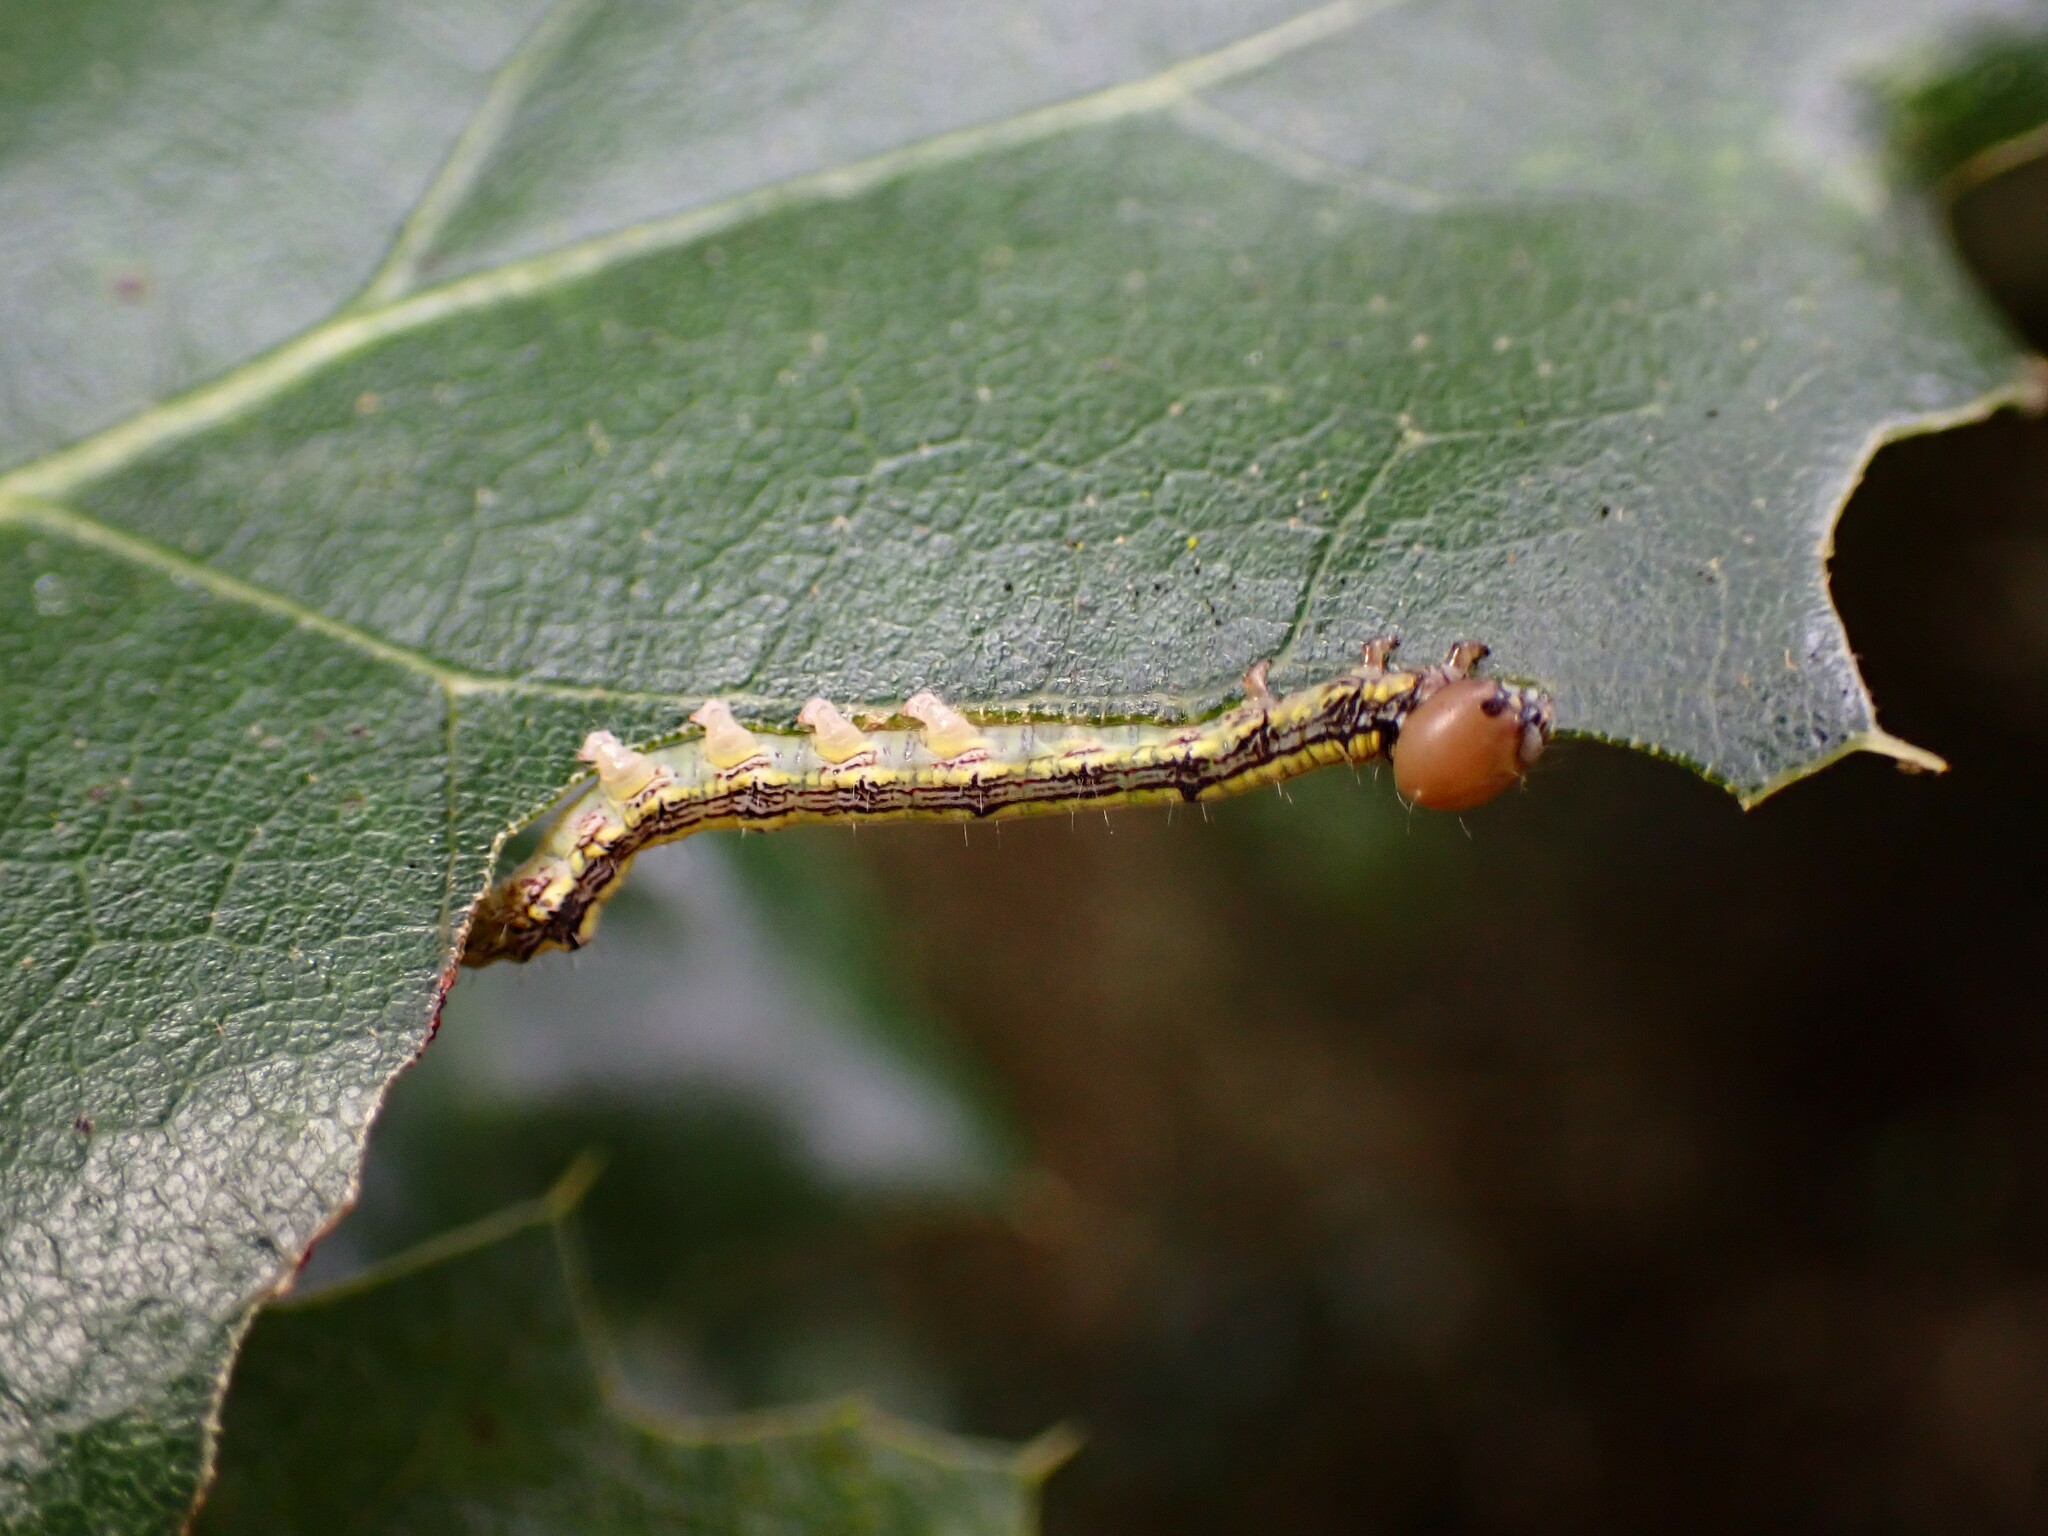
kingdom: Animalia
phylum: Arthropoda
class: Insecta
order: Lepidoptera
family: Notodontidae
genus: Phryganidia
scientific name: Phryganidia californica
